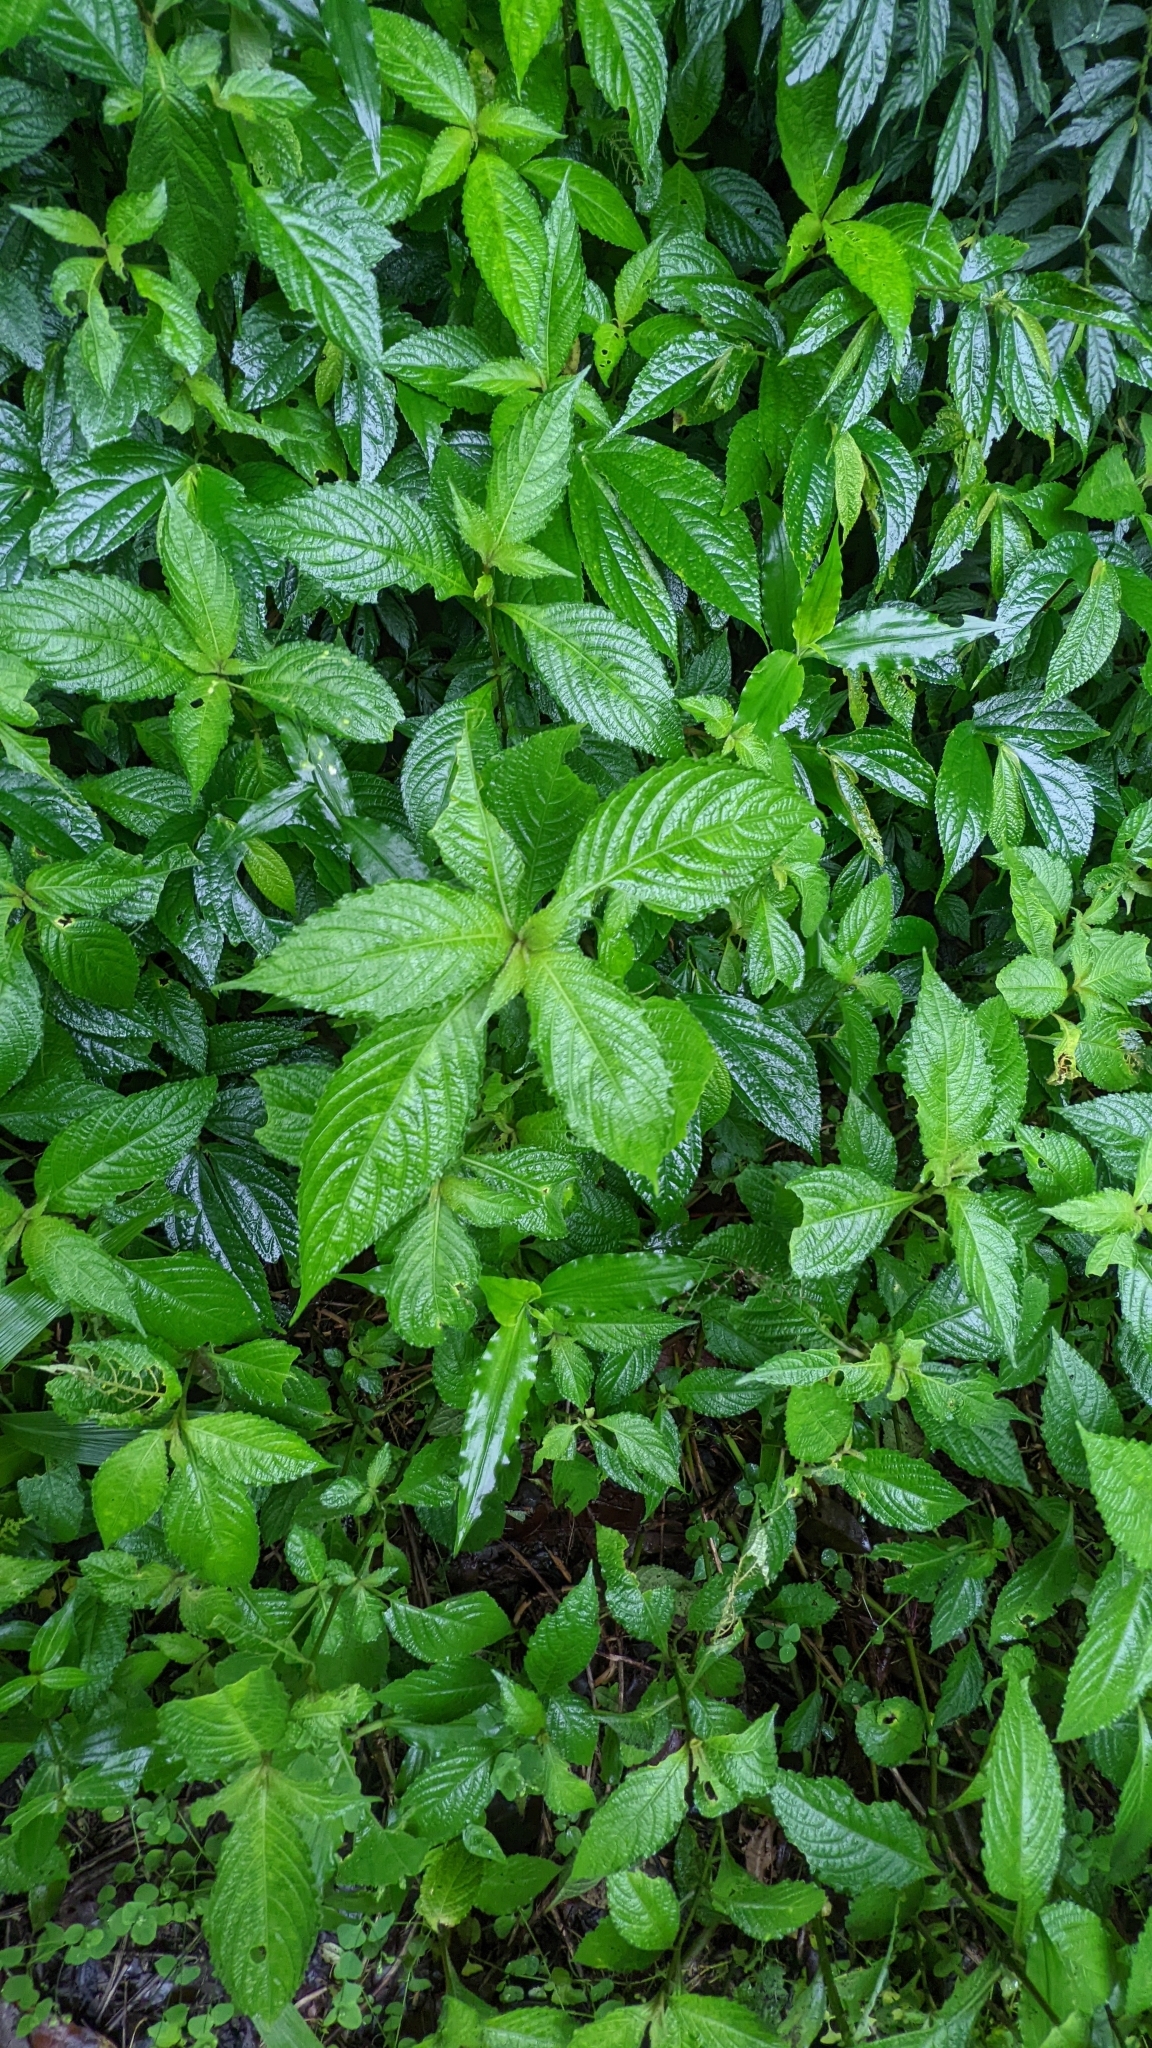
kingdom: Plantae
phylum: Tracheophyta
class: Magnoliopsida
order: Lamiales
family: Acanthaceae
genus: Strobilanthes
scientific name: Strobilanthes formosana
